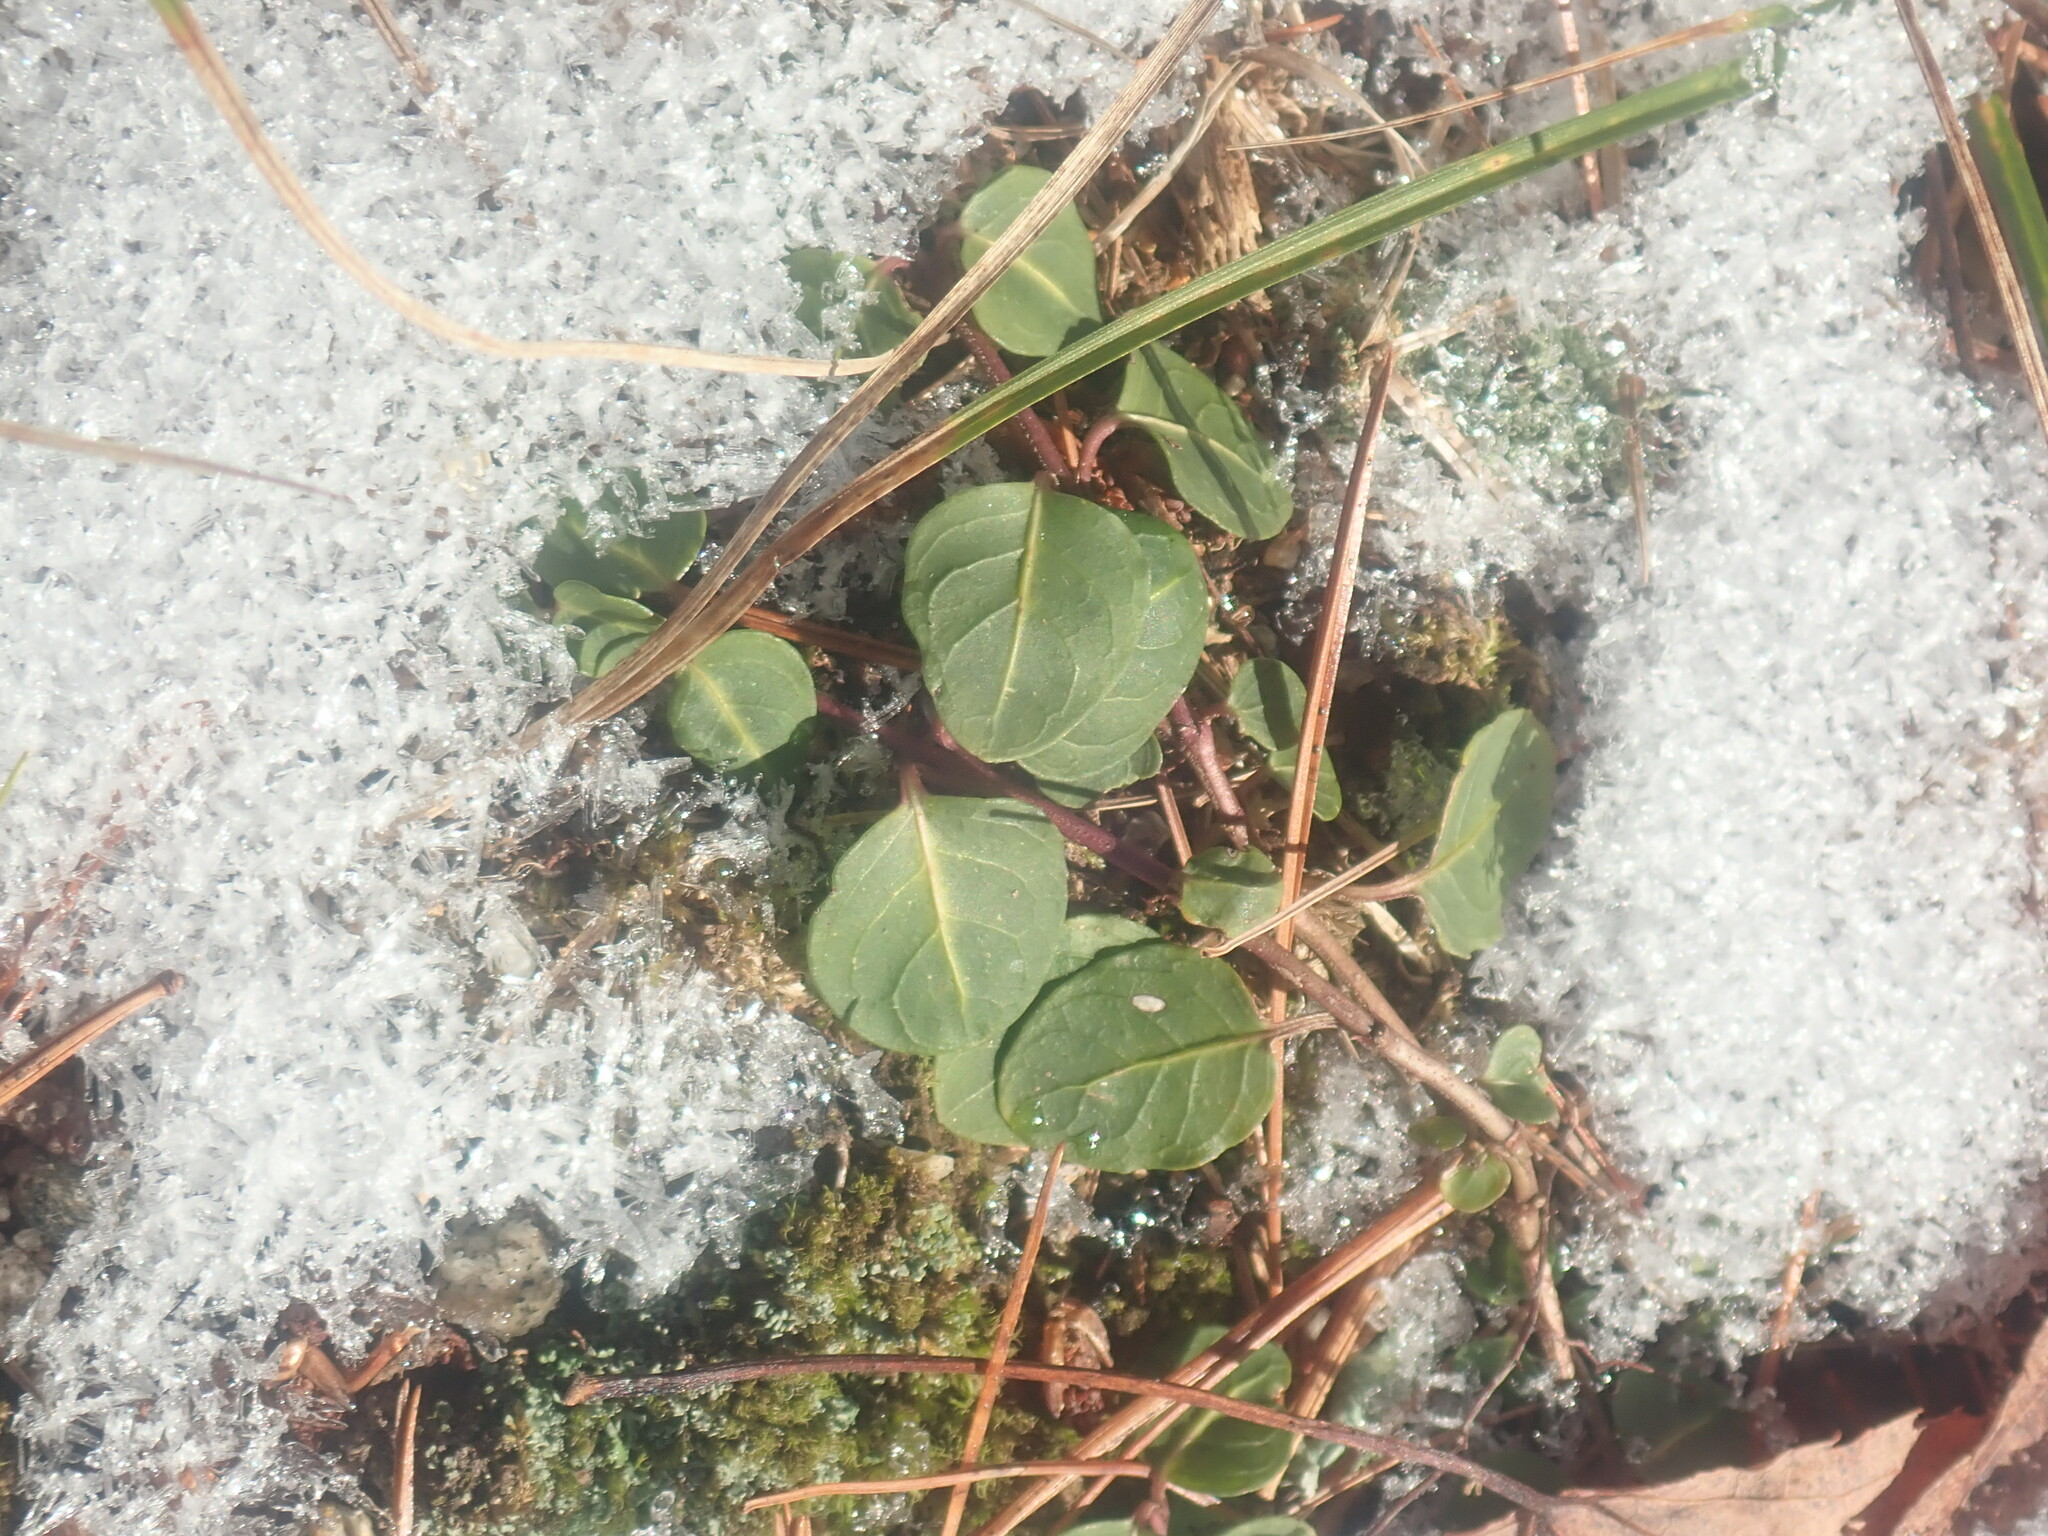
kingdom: Plantae
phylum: Tracheophyta
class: Magnoliopsida
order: Gentianales
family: Rubiaceae
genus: Mitchella
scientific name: Mitchella repens
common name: Partridge-berry
